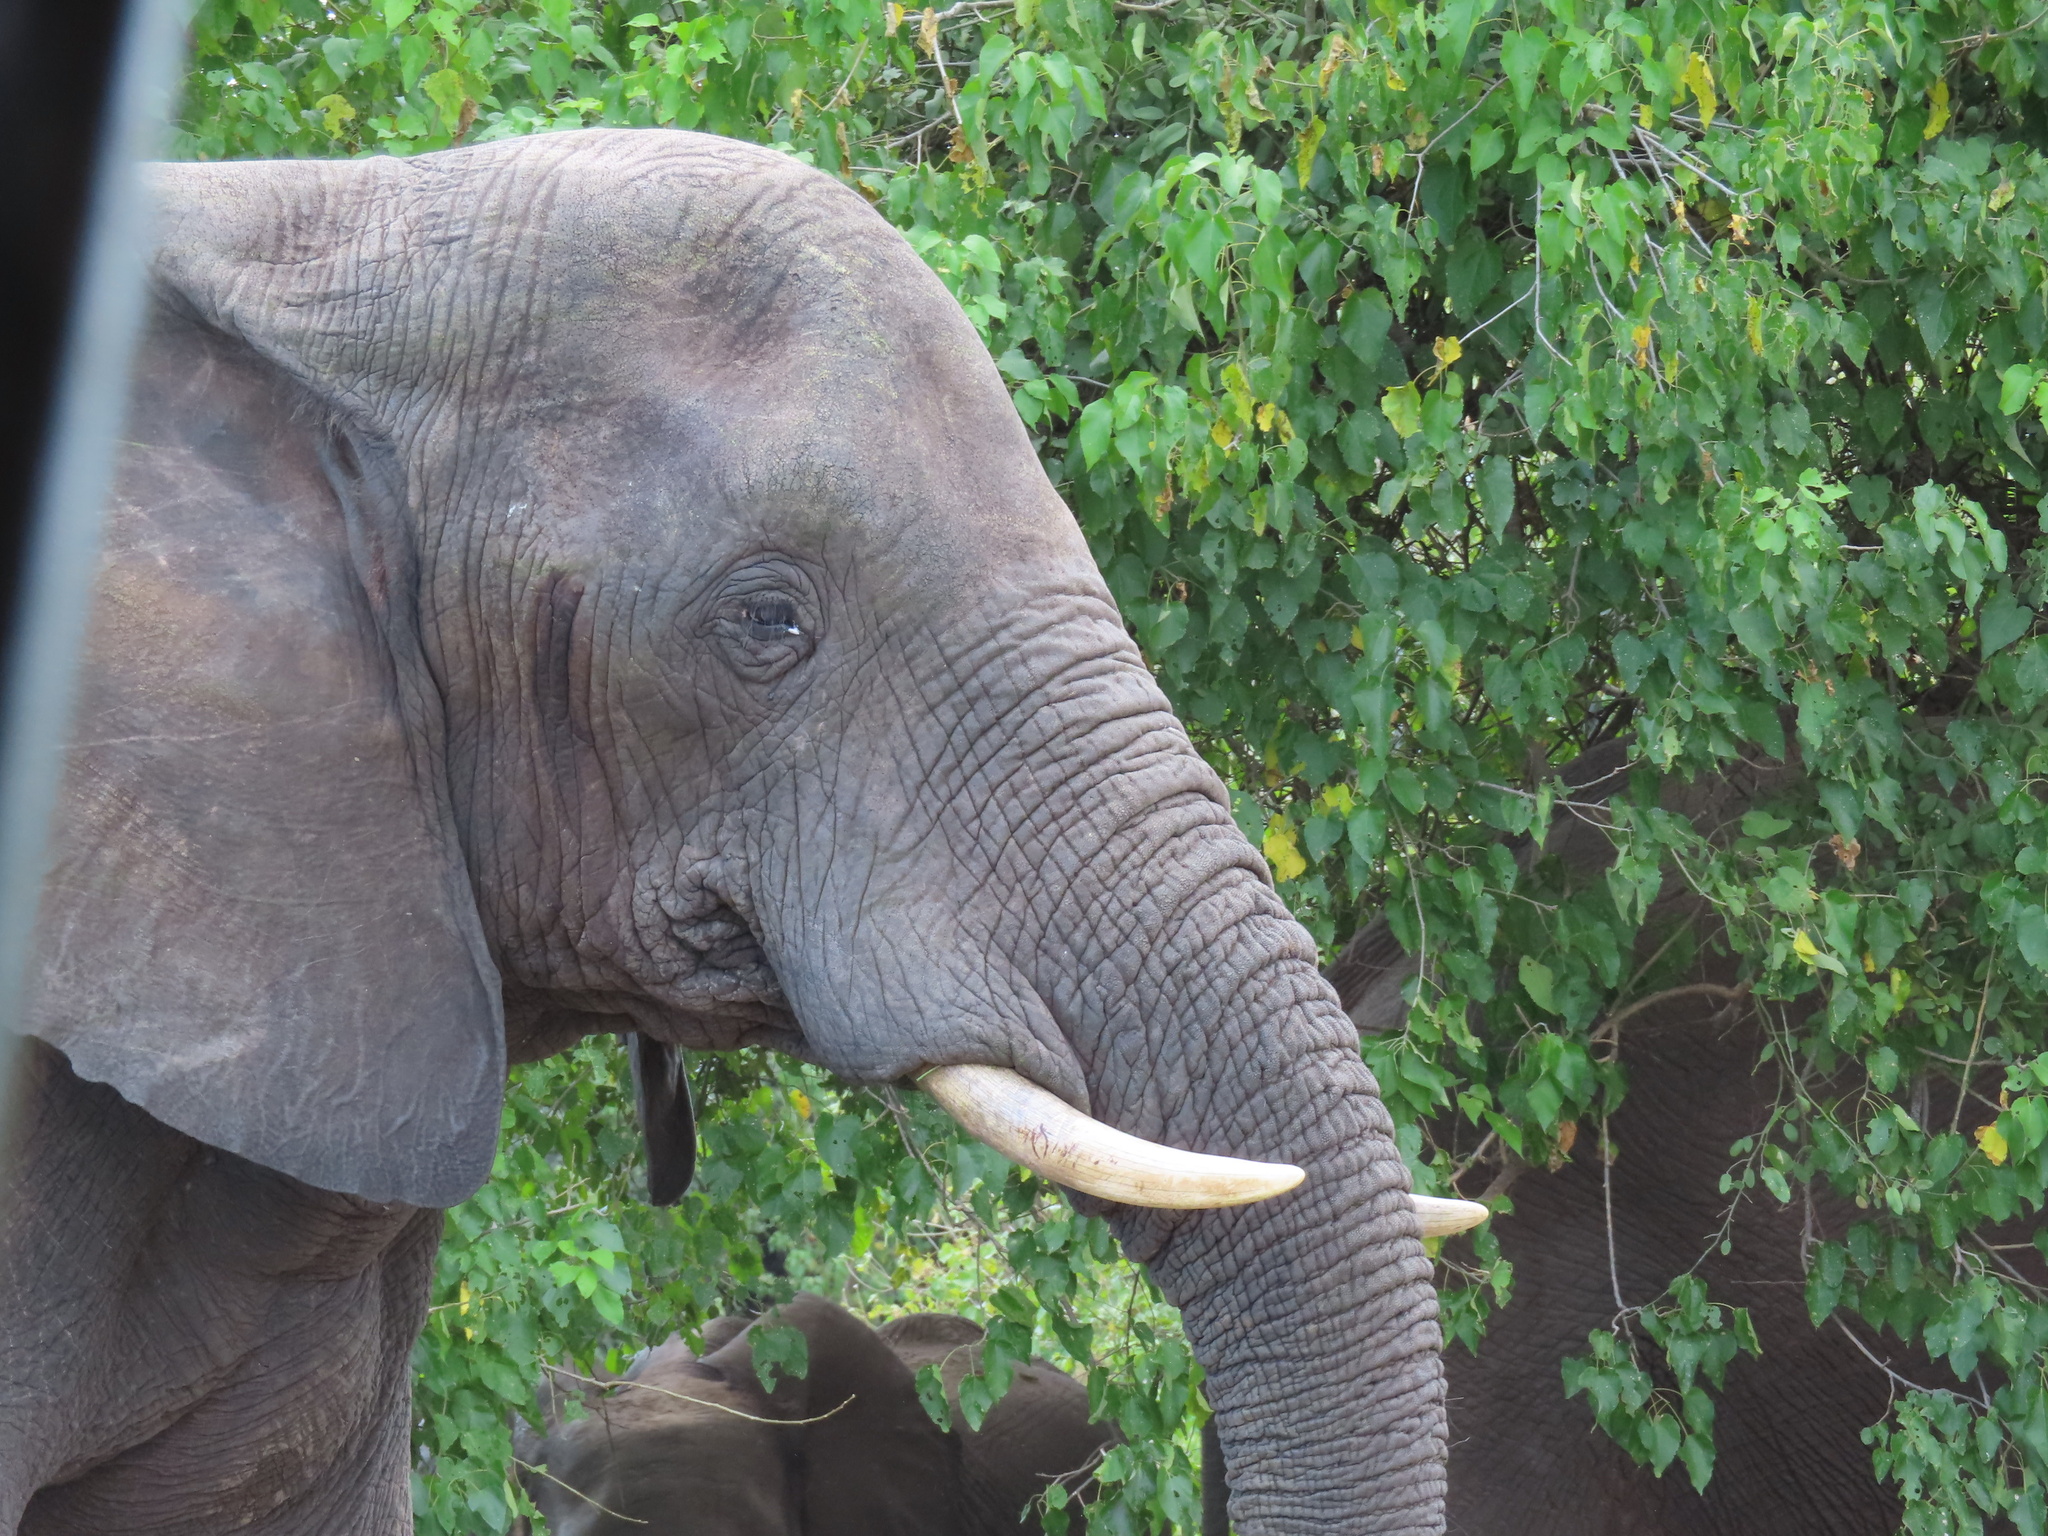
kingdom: Animalia
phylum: Chordata
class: Mammalia
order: Proboscidea
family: Elephantidae
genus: Loxodonta
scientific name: Loxodonta africana
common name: African elephant
